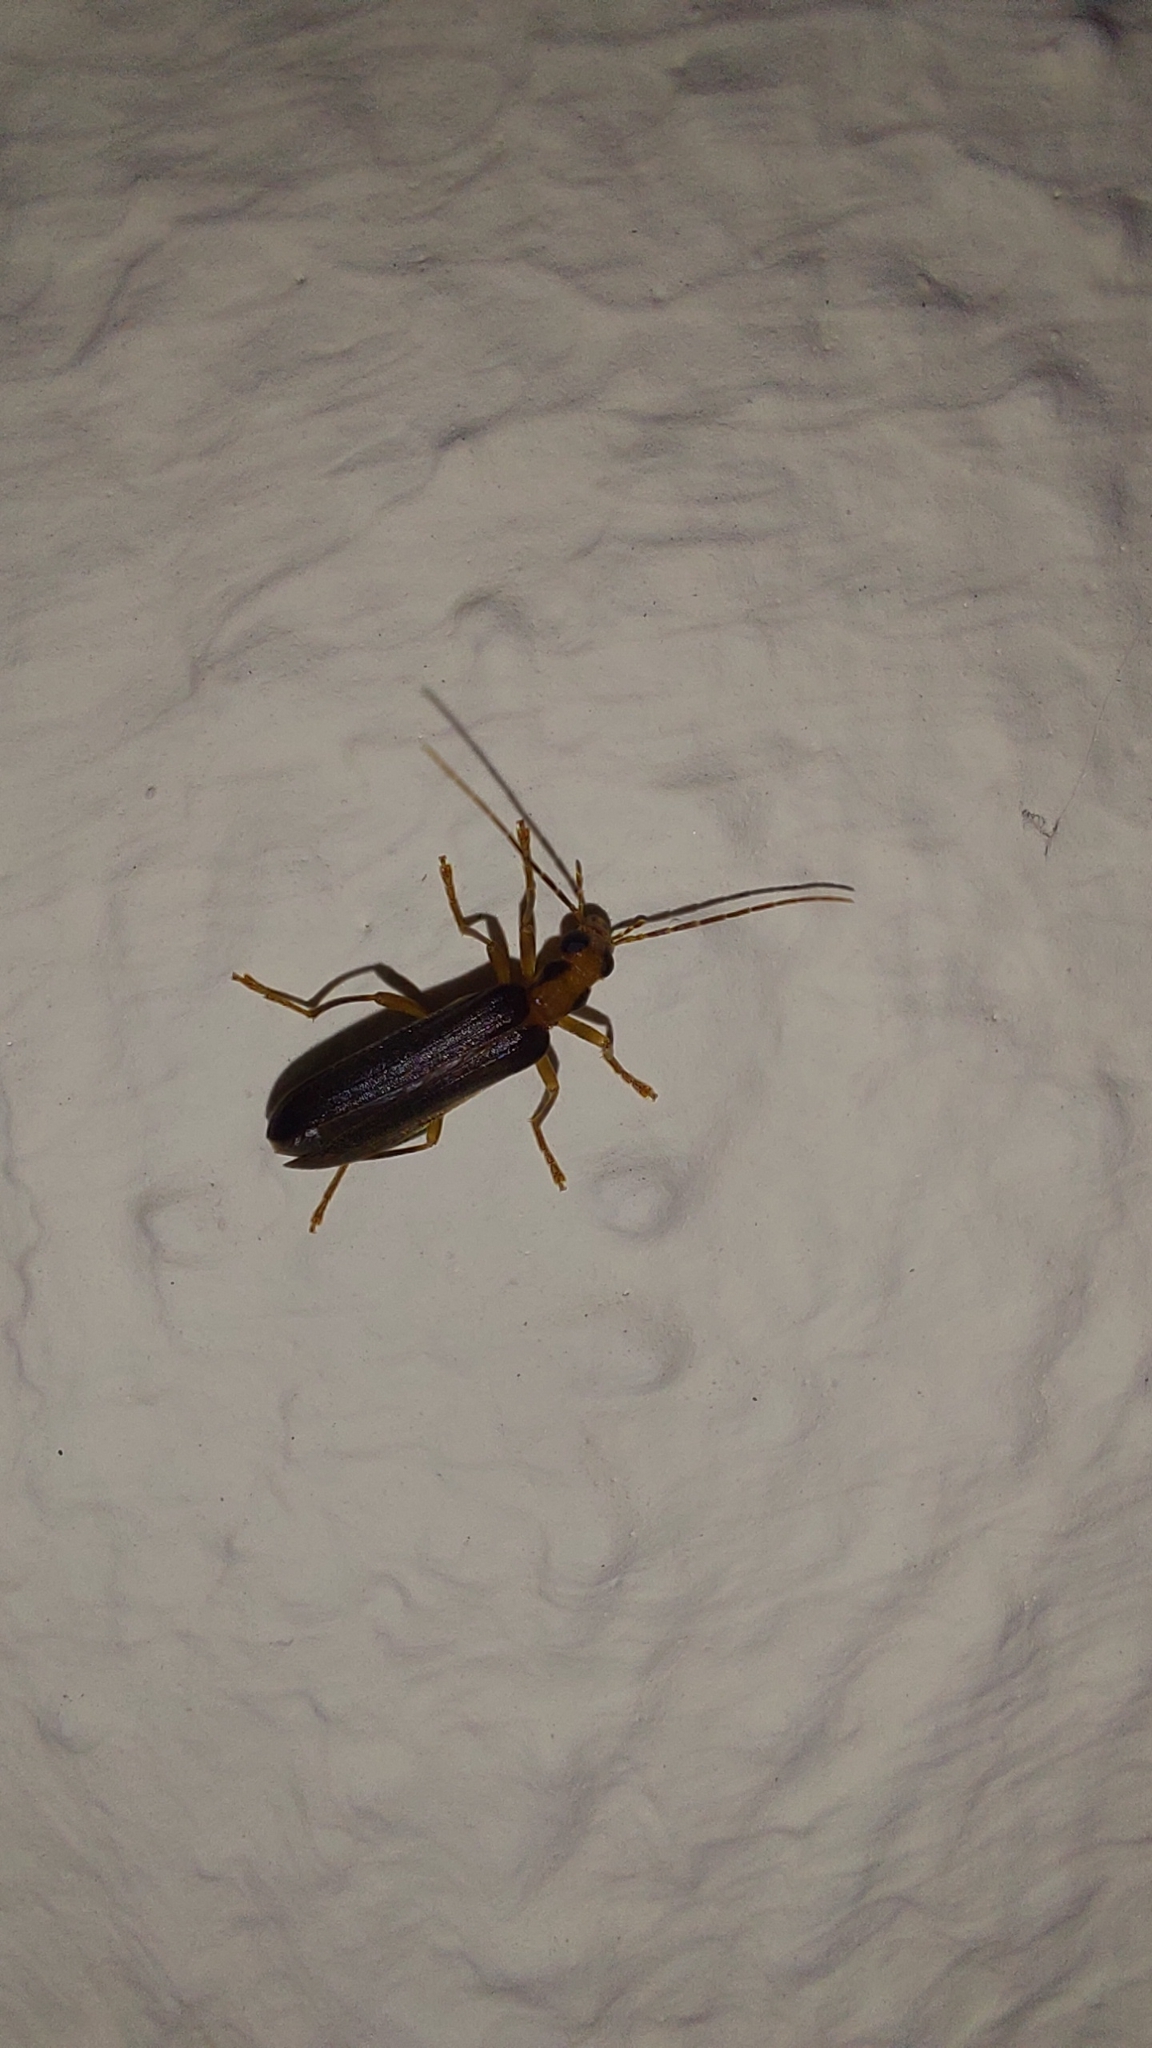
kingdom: Animalia
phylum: Arthropoda
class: Insecta
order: Coleoptera
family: Oedemeridae
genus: Nacerdes
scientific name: Nacerdes carniolica
